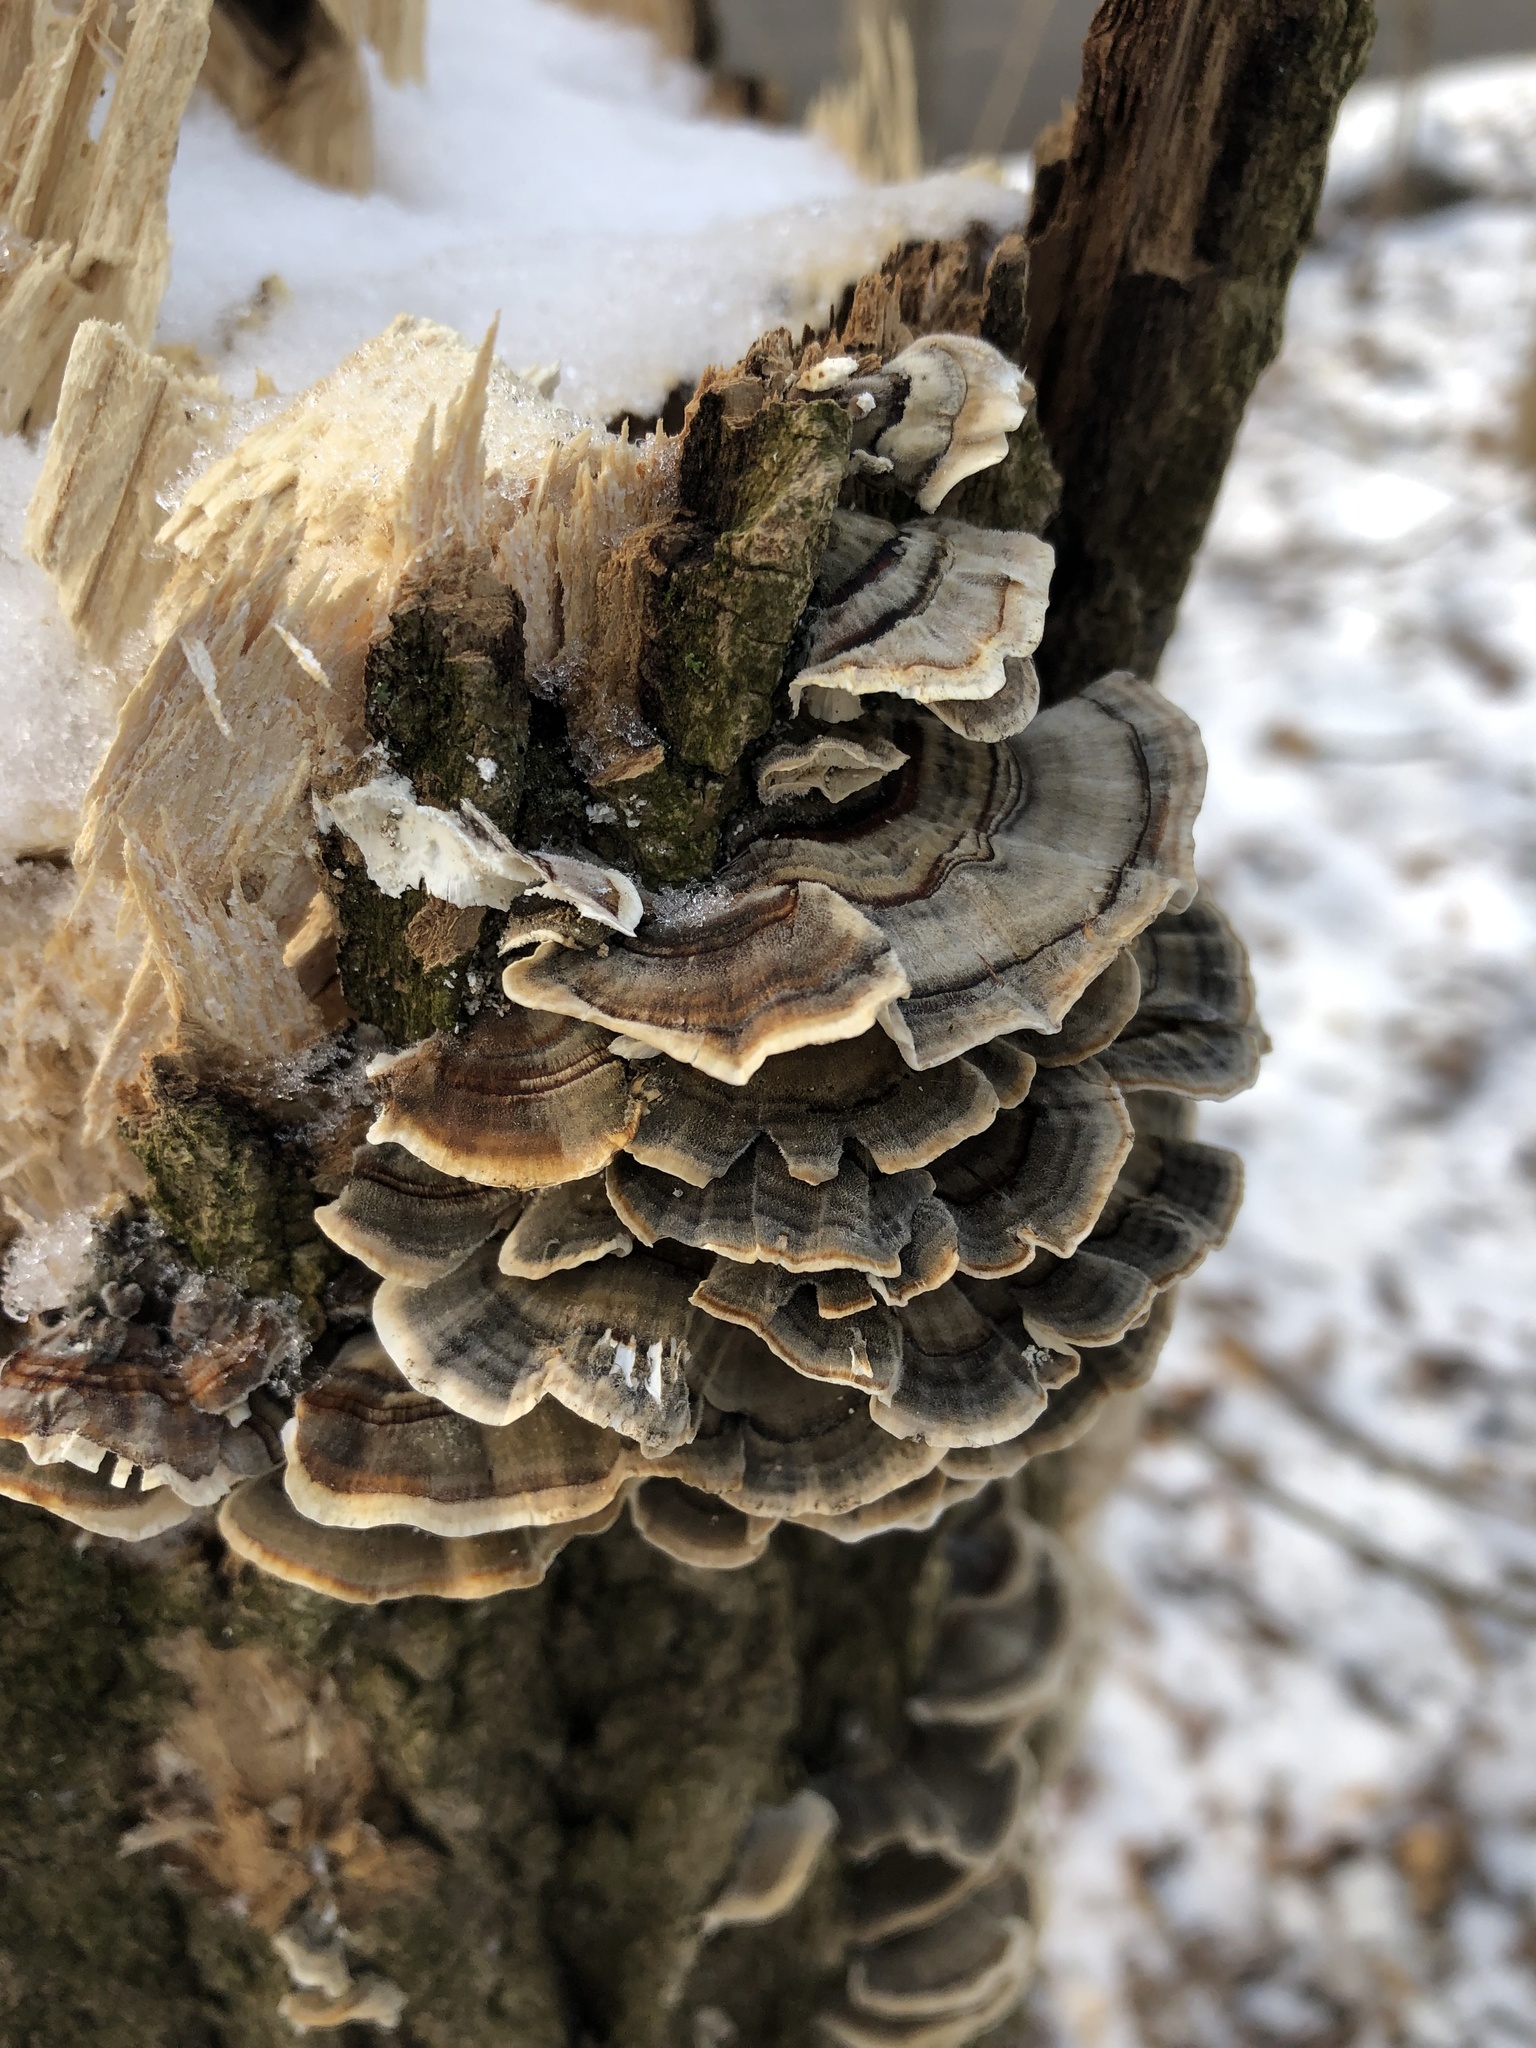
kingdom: Fungi
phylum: Basidiomycota
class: Agaricomycetes
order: Polyporales
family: Polyporaceae
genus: Trametes
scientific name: Trametes versicolor
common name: Turkeytail
